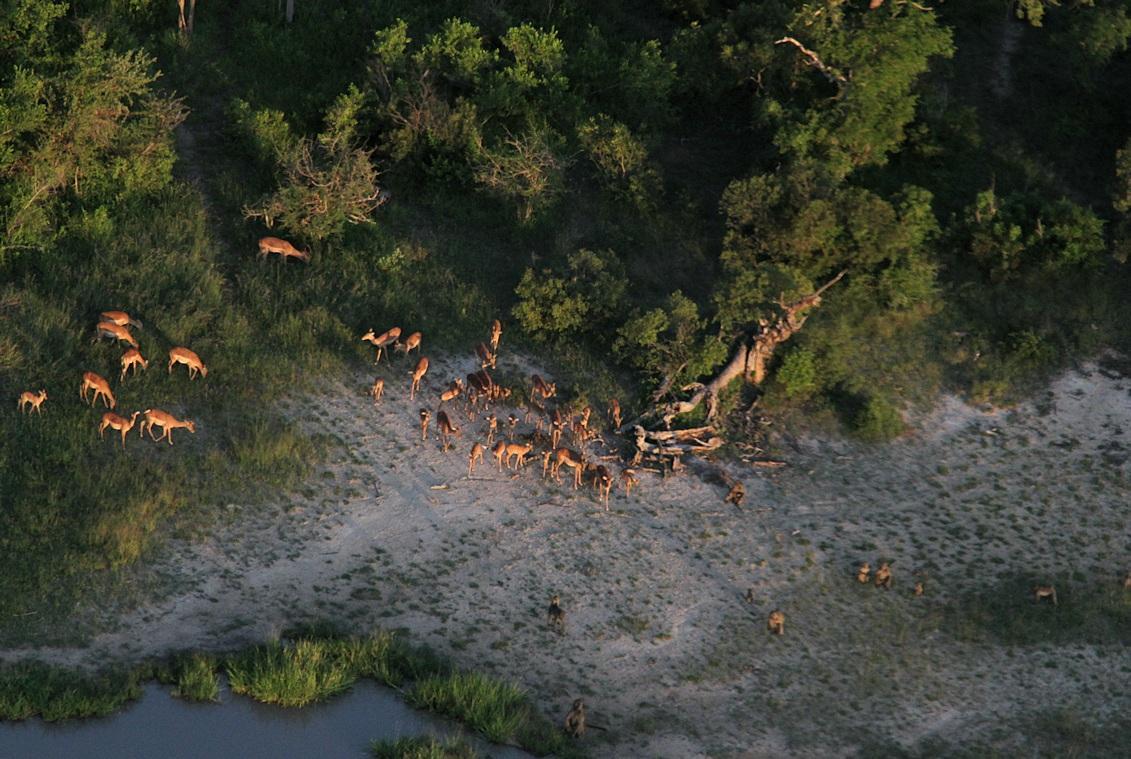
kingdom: Animalia
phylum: Chordata
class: Mammalia
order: Artiodactyla
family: Bovidae
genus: Aepyceros
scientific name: Aepyceros melampus
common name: Impala
